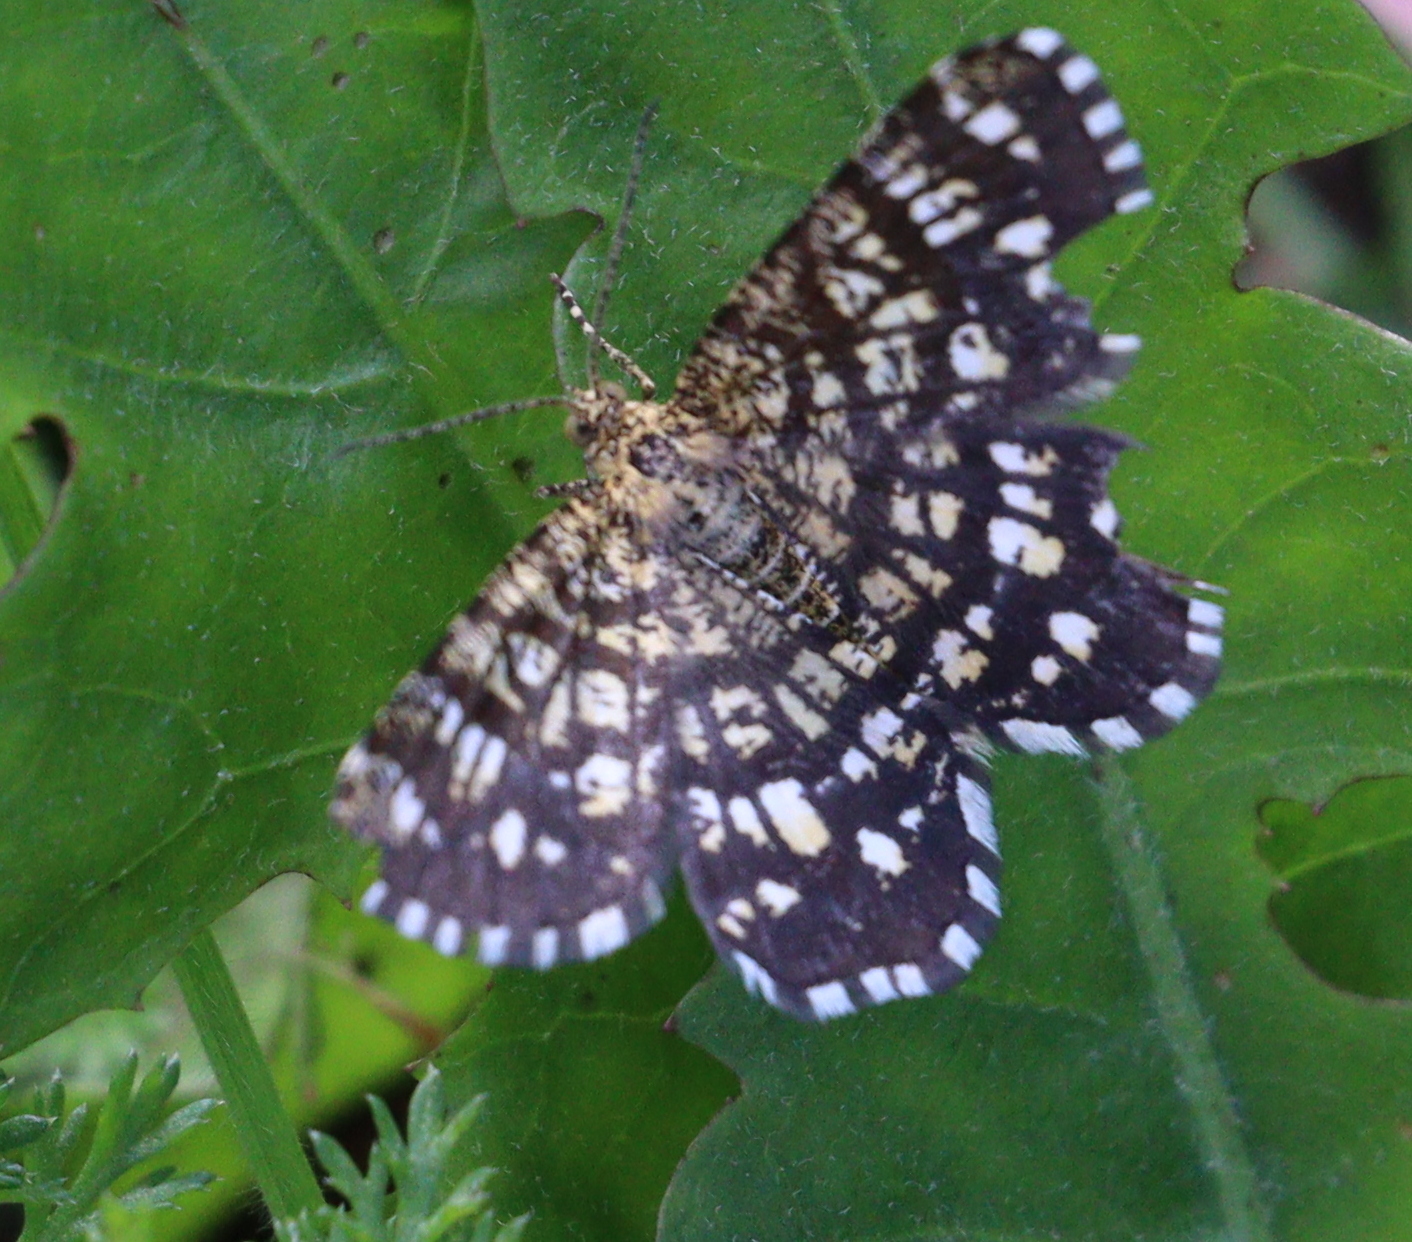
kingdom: Animalia
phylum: Arthropoda
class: Insecta
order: Lepidoptera
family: Geometridae
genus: Chiasmia
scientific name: Chiasmia clathrata
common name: Latticed heath
